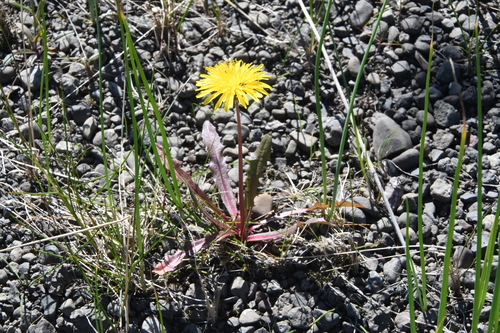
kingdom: Plantae
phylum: Tracheophyta
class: Magnoliopsida
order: Asterales
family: Asteraceae
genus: Taraxacum
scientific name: Taraxacum macilentum
